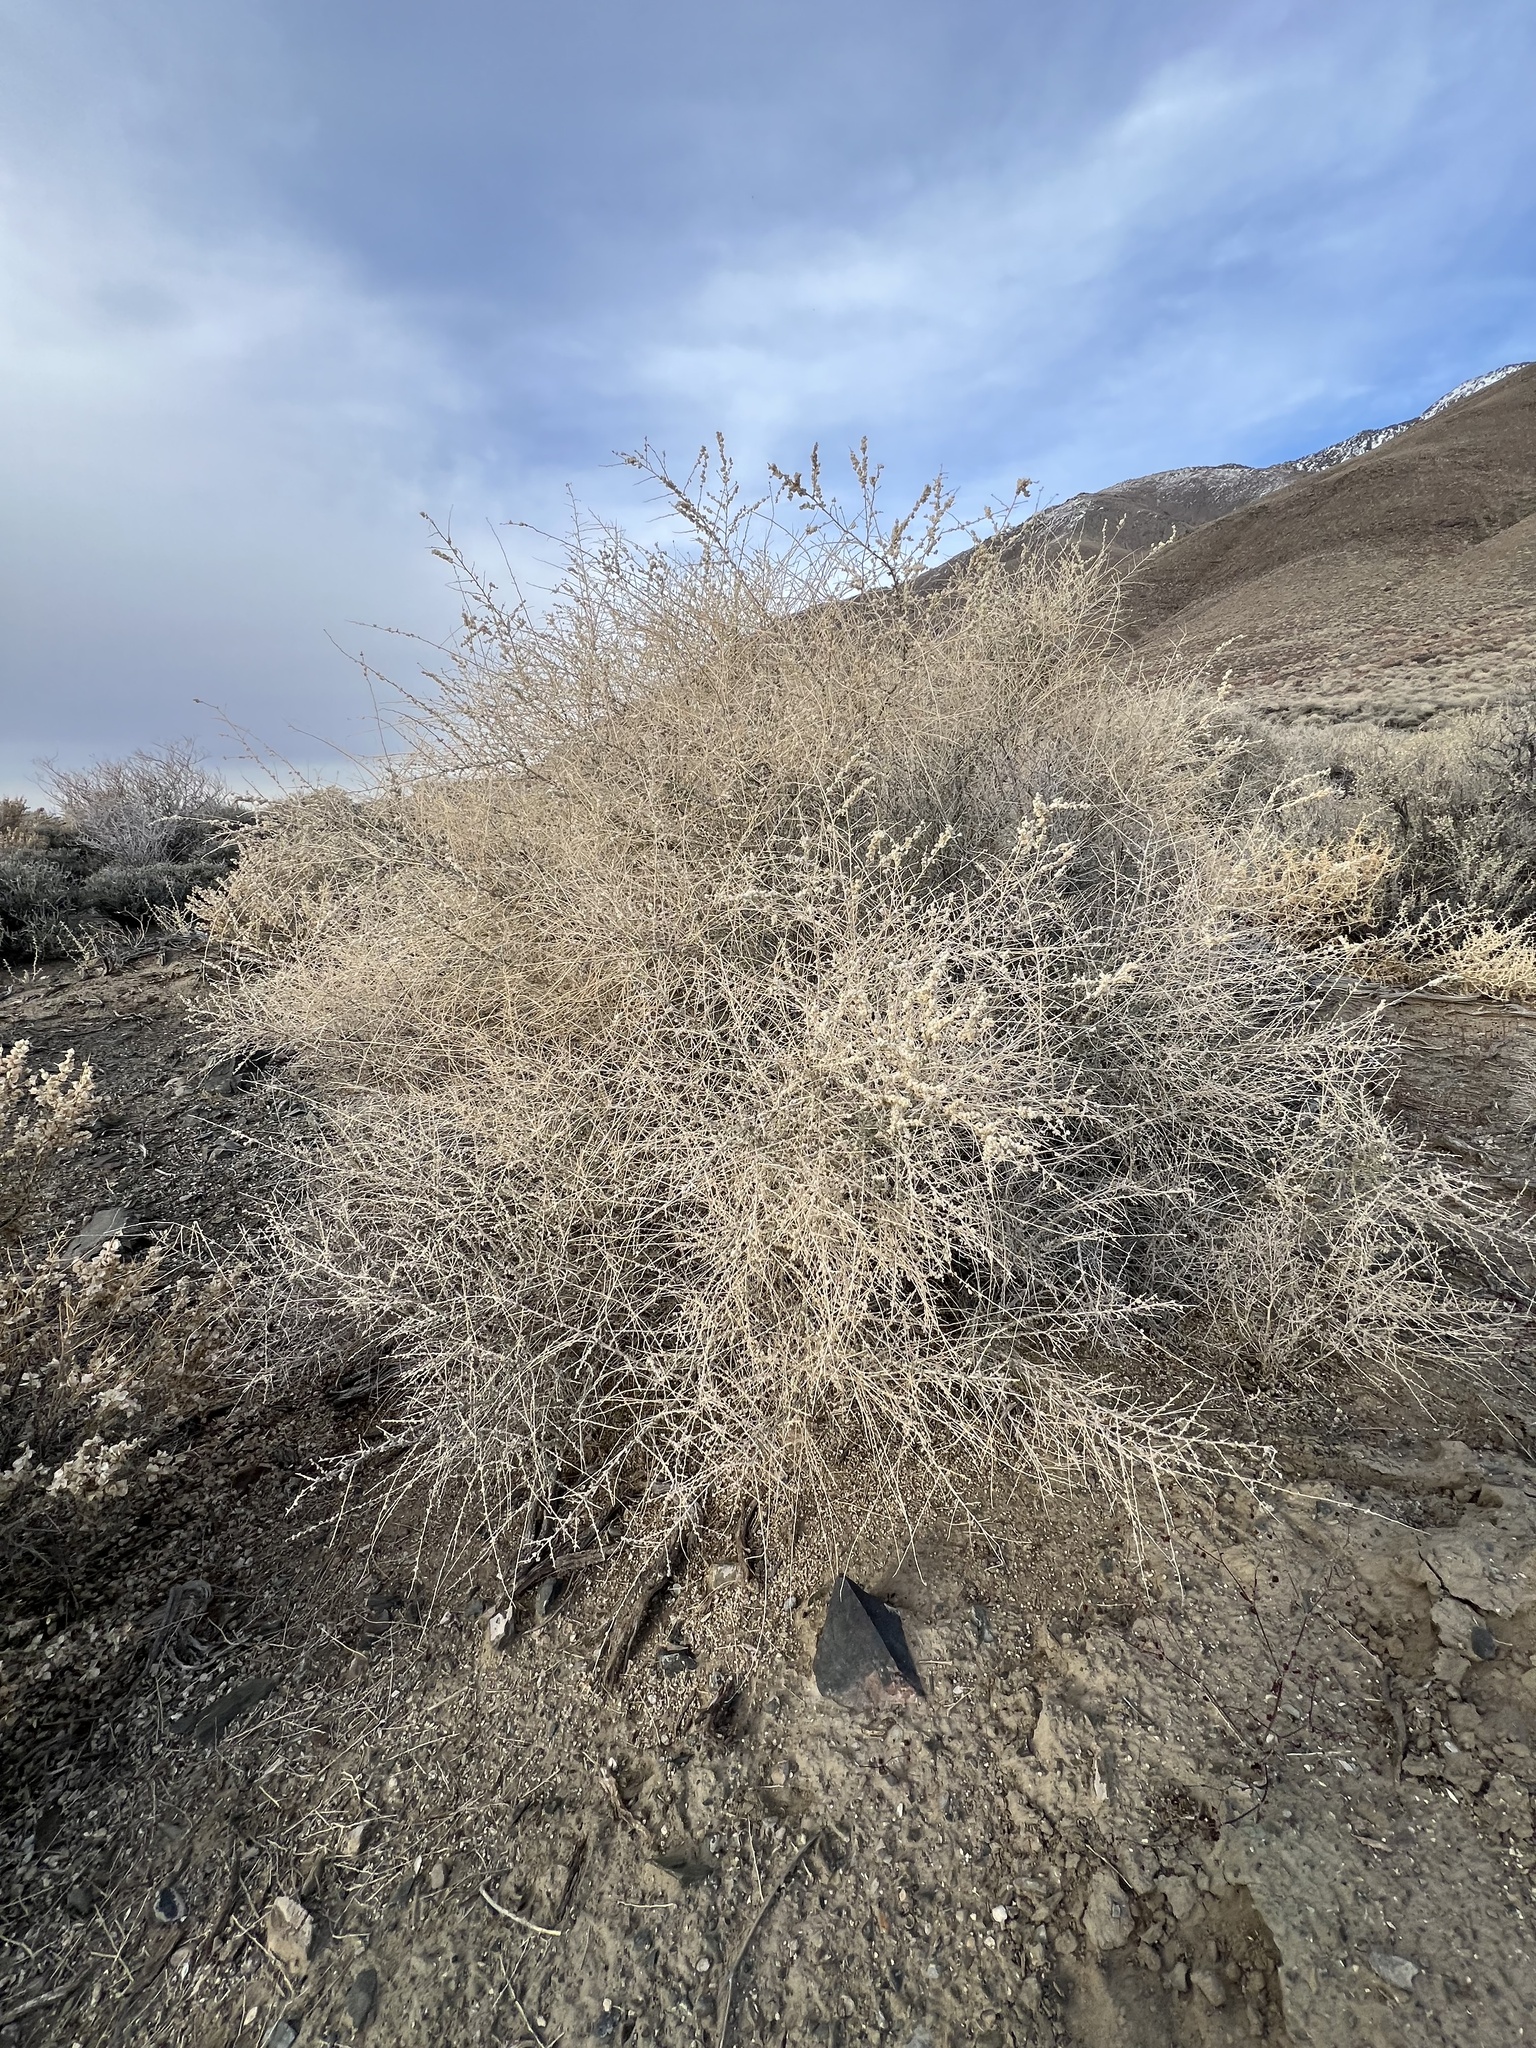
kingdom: Plantae
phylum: Tracheophyta
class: Magnoliopsida
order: Caryophyllales
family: Amaranthaceae
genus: Atriplex
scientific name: Atriplex polycarpa
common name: Desert saltbush
